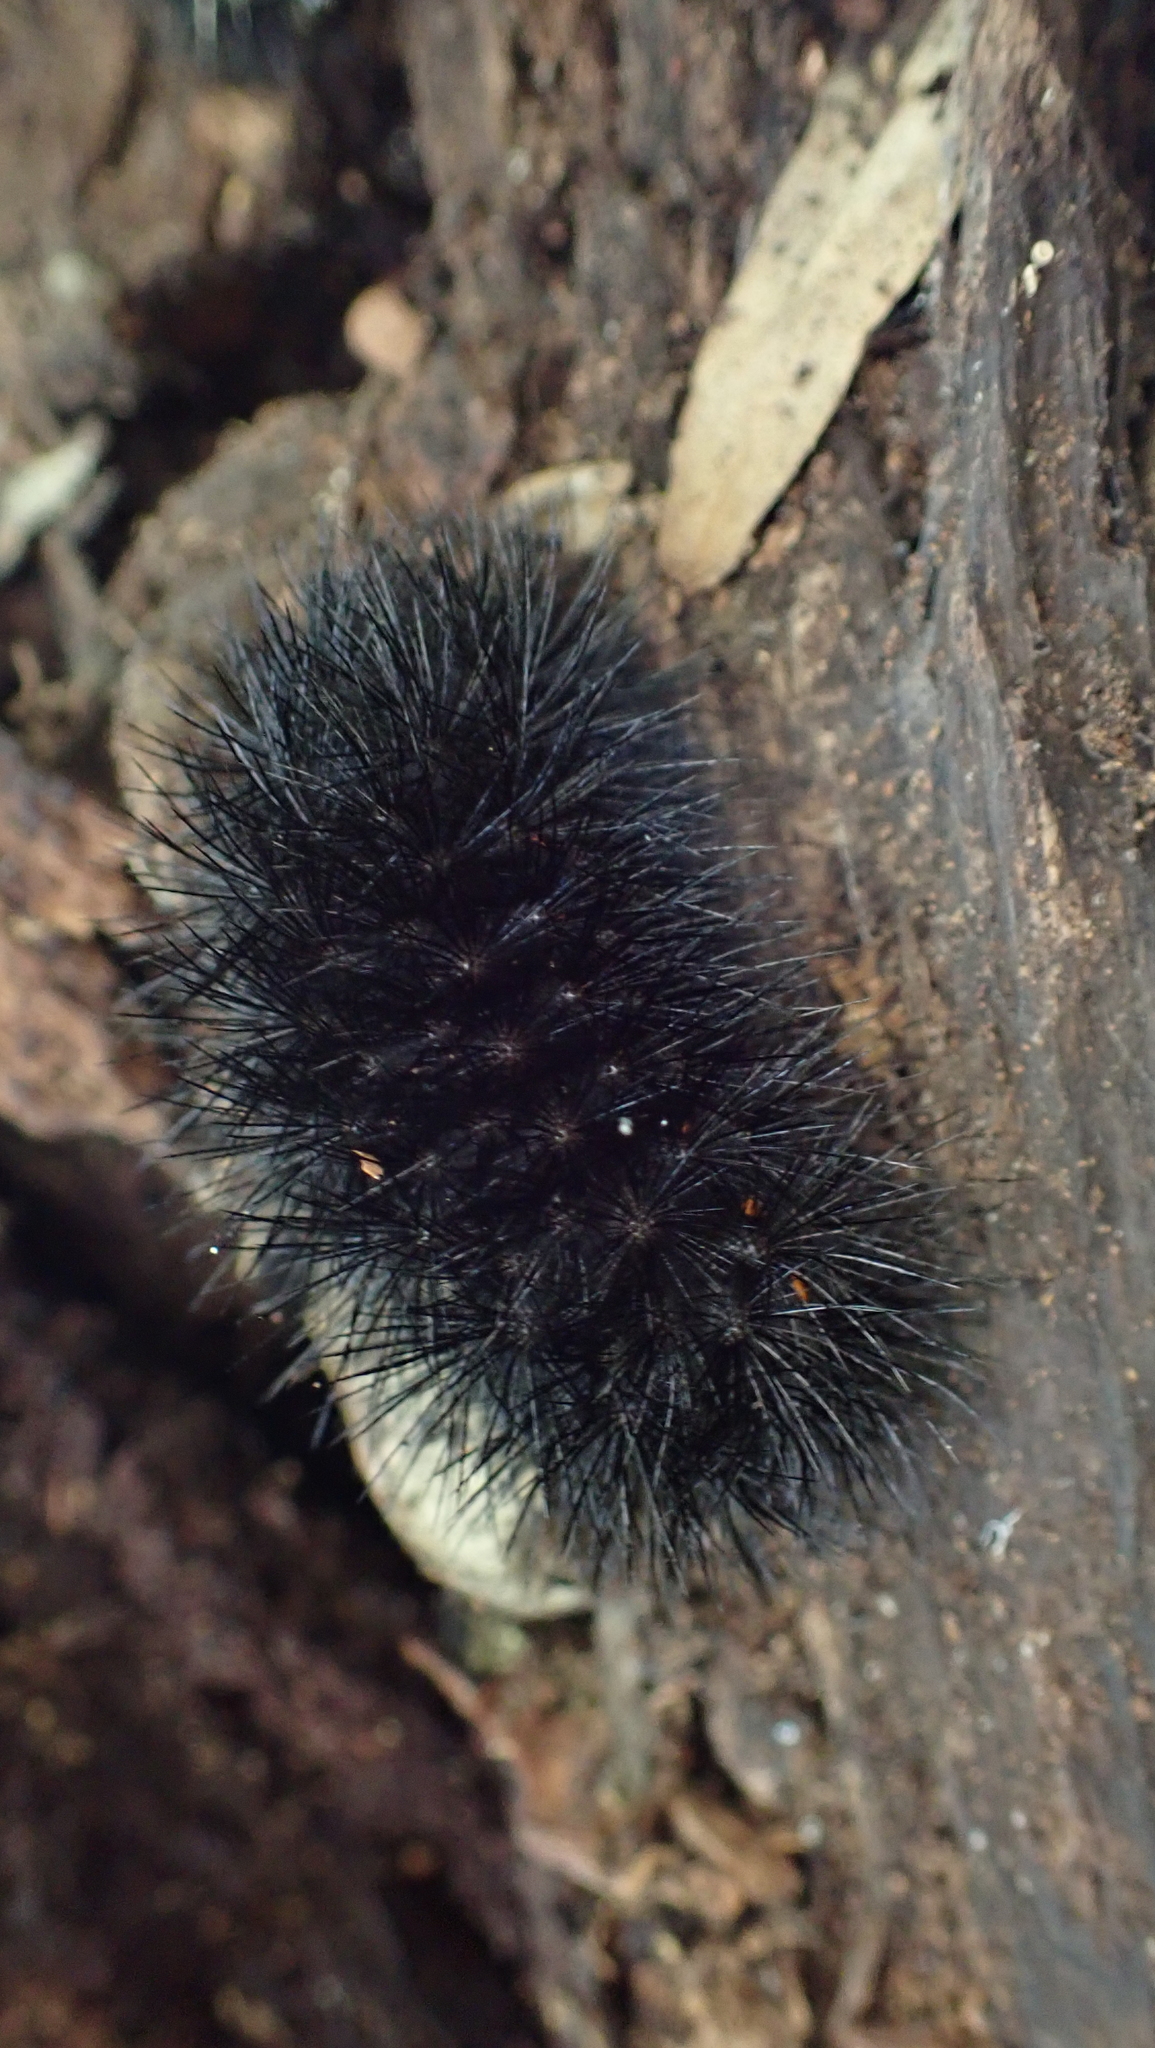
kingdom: Animalia
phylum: Arthropoda
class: Insecta
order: Lepidoptera
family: Erebidae
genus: Hypercompe
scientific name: Hypercompe scribonia
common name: Giant leopard moth
